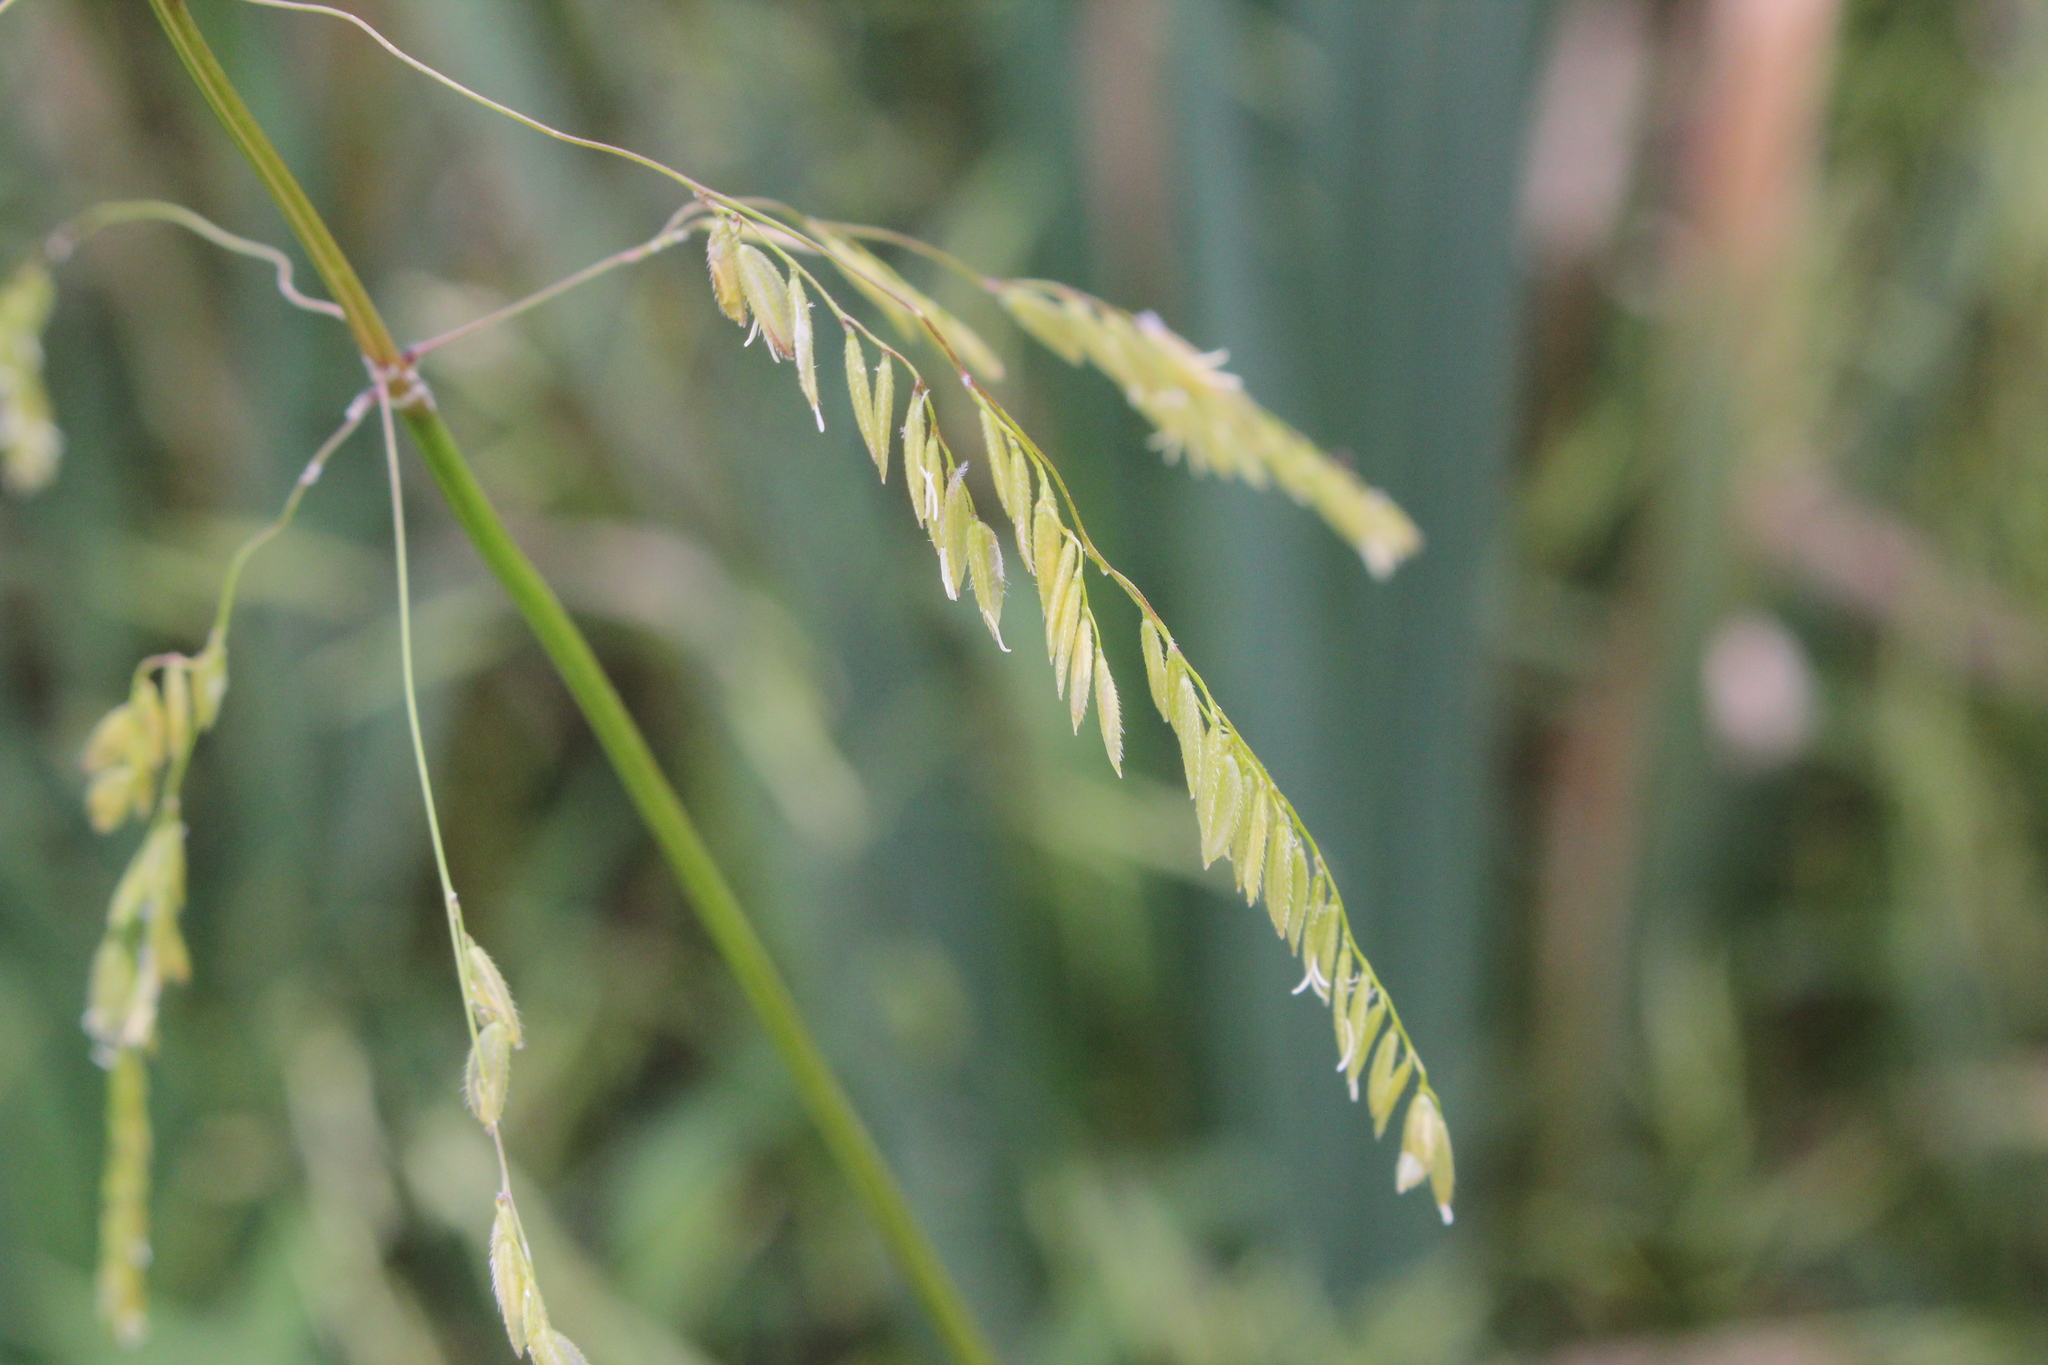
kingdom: Plantae
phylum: Tracheophyta
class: Liliopsida
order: Poales
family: Poaceae
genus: Leersia
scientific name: Leersia oryzoides
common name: Cut-grass
